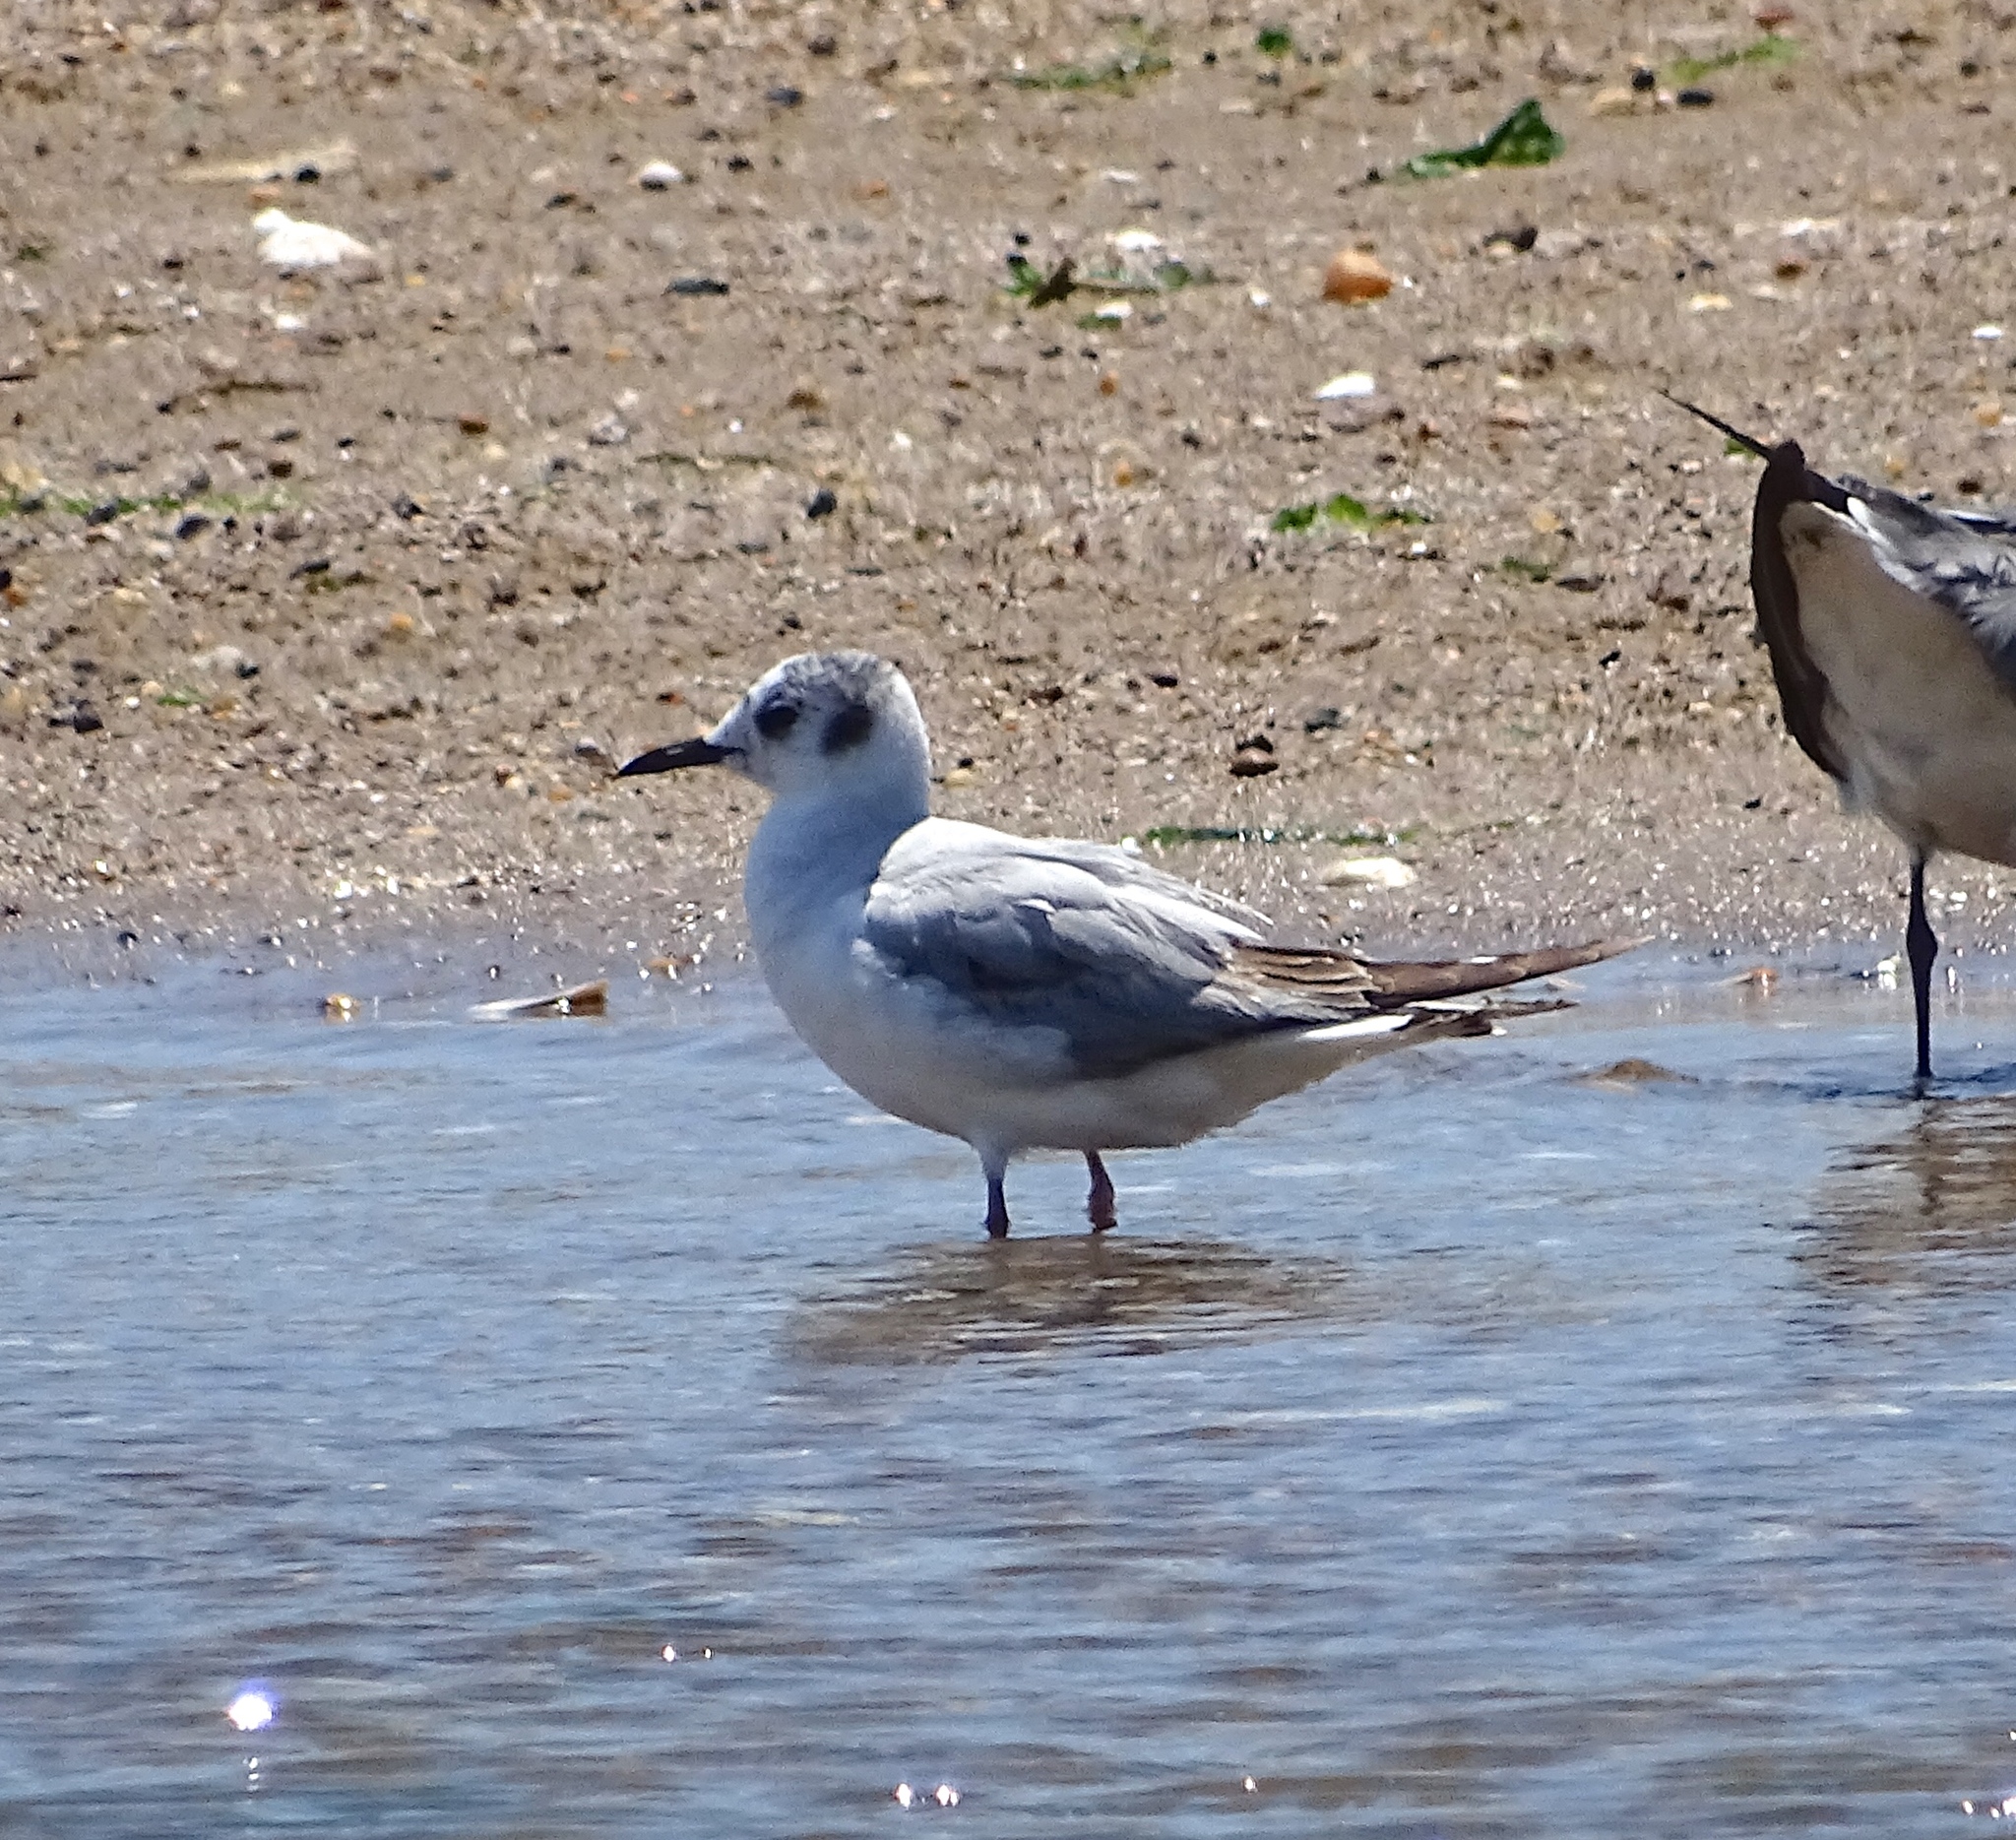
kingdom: Animalia
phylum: Chordata
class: Aves
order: Charadriiformes
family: Laridae
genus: Chroicocephalus
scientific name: Chroicocephalus philadelphia
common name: Bonaparte's gull
